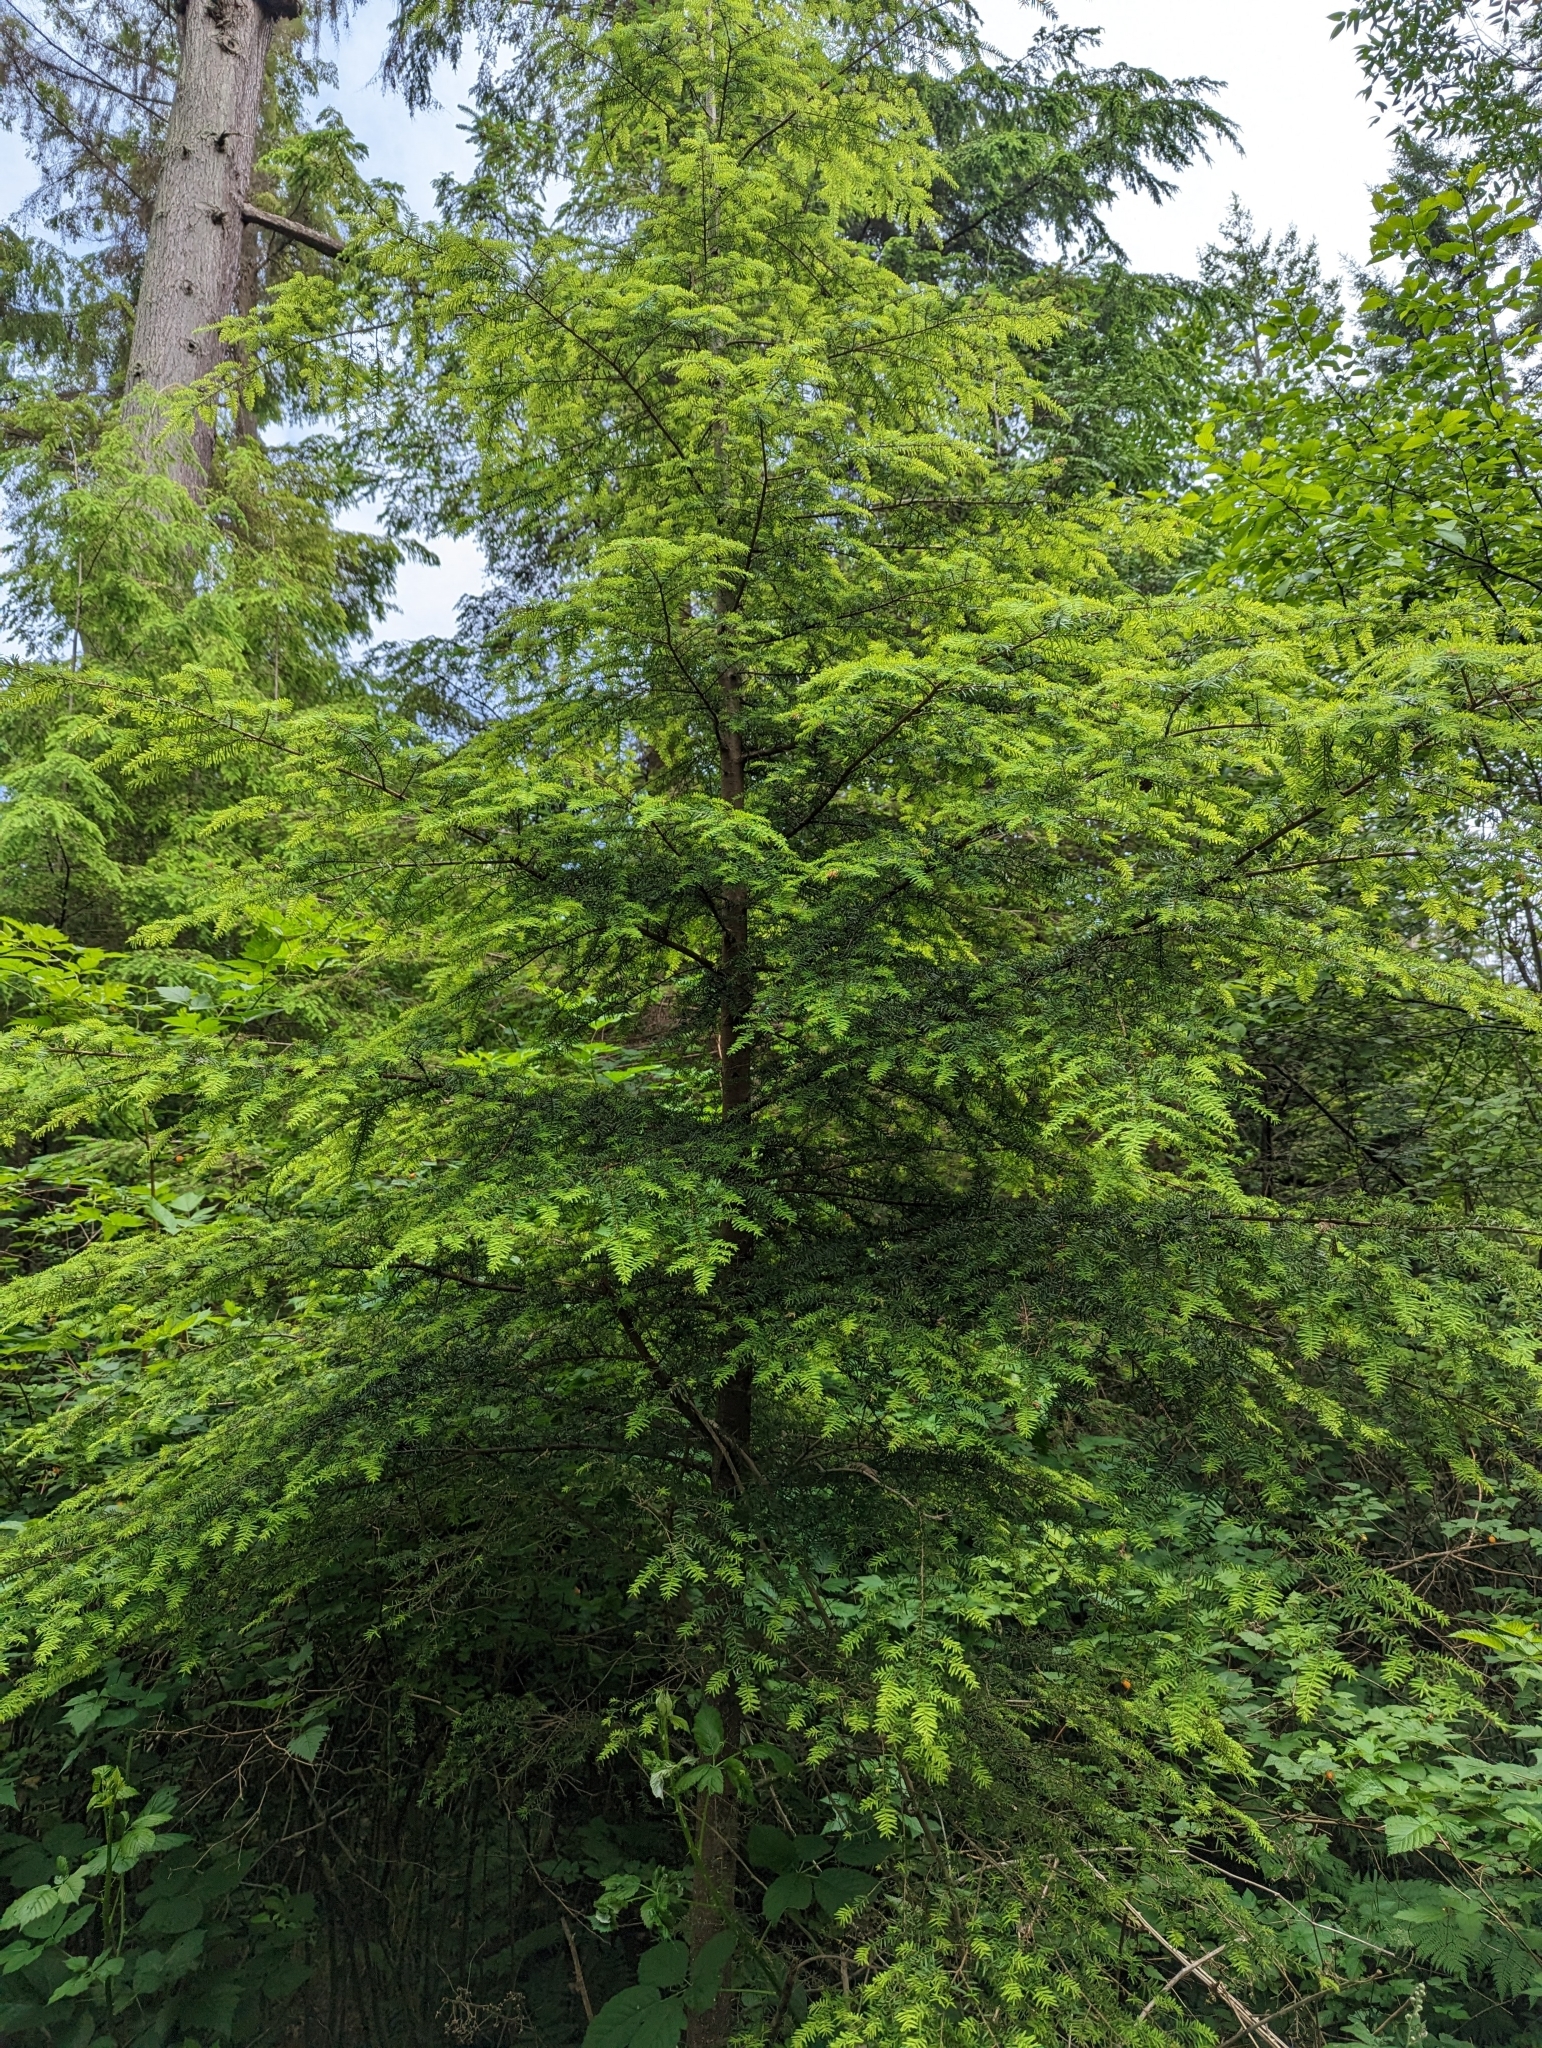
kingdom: Plantae
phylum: Tracheophyta
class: Pinopsida
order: Pinales
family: Pinaceae
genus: Tsuga
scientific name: Tsuga heterophylla
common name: Western hemlock
